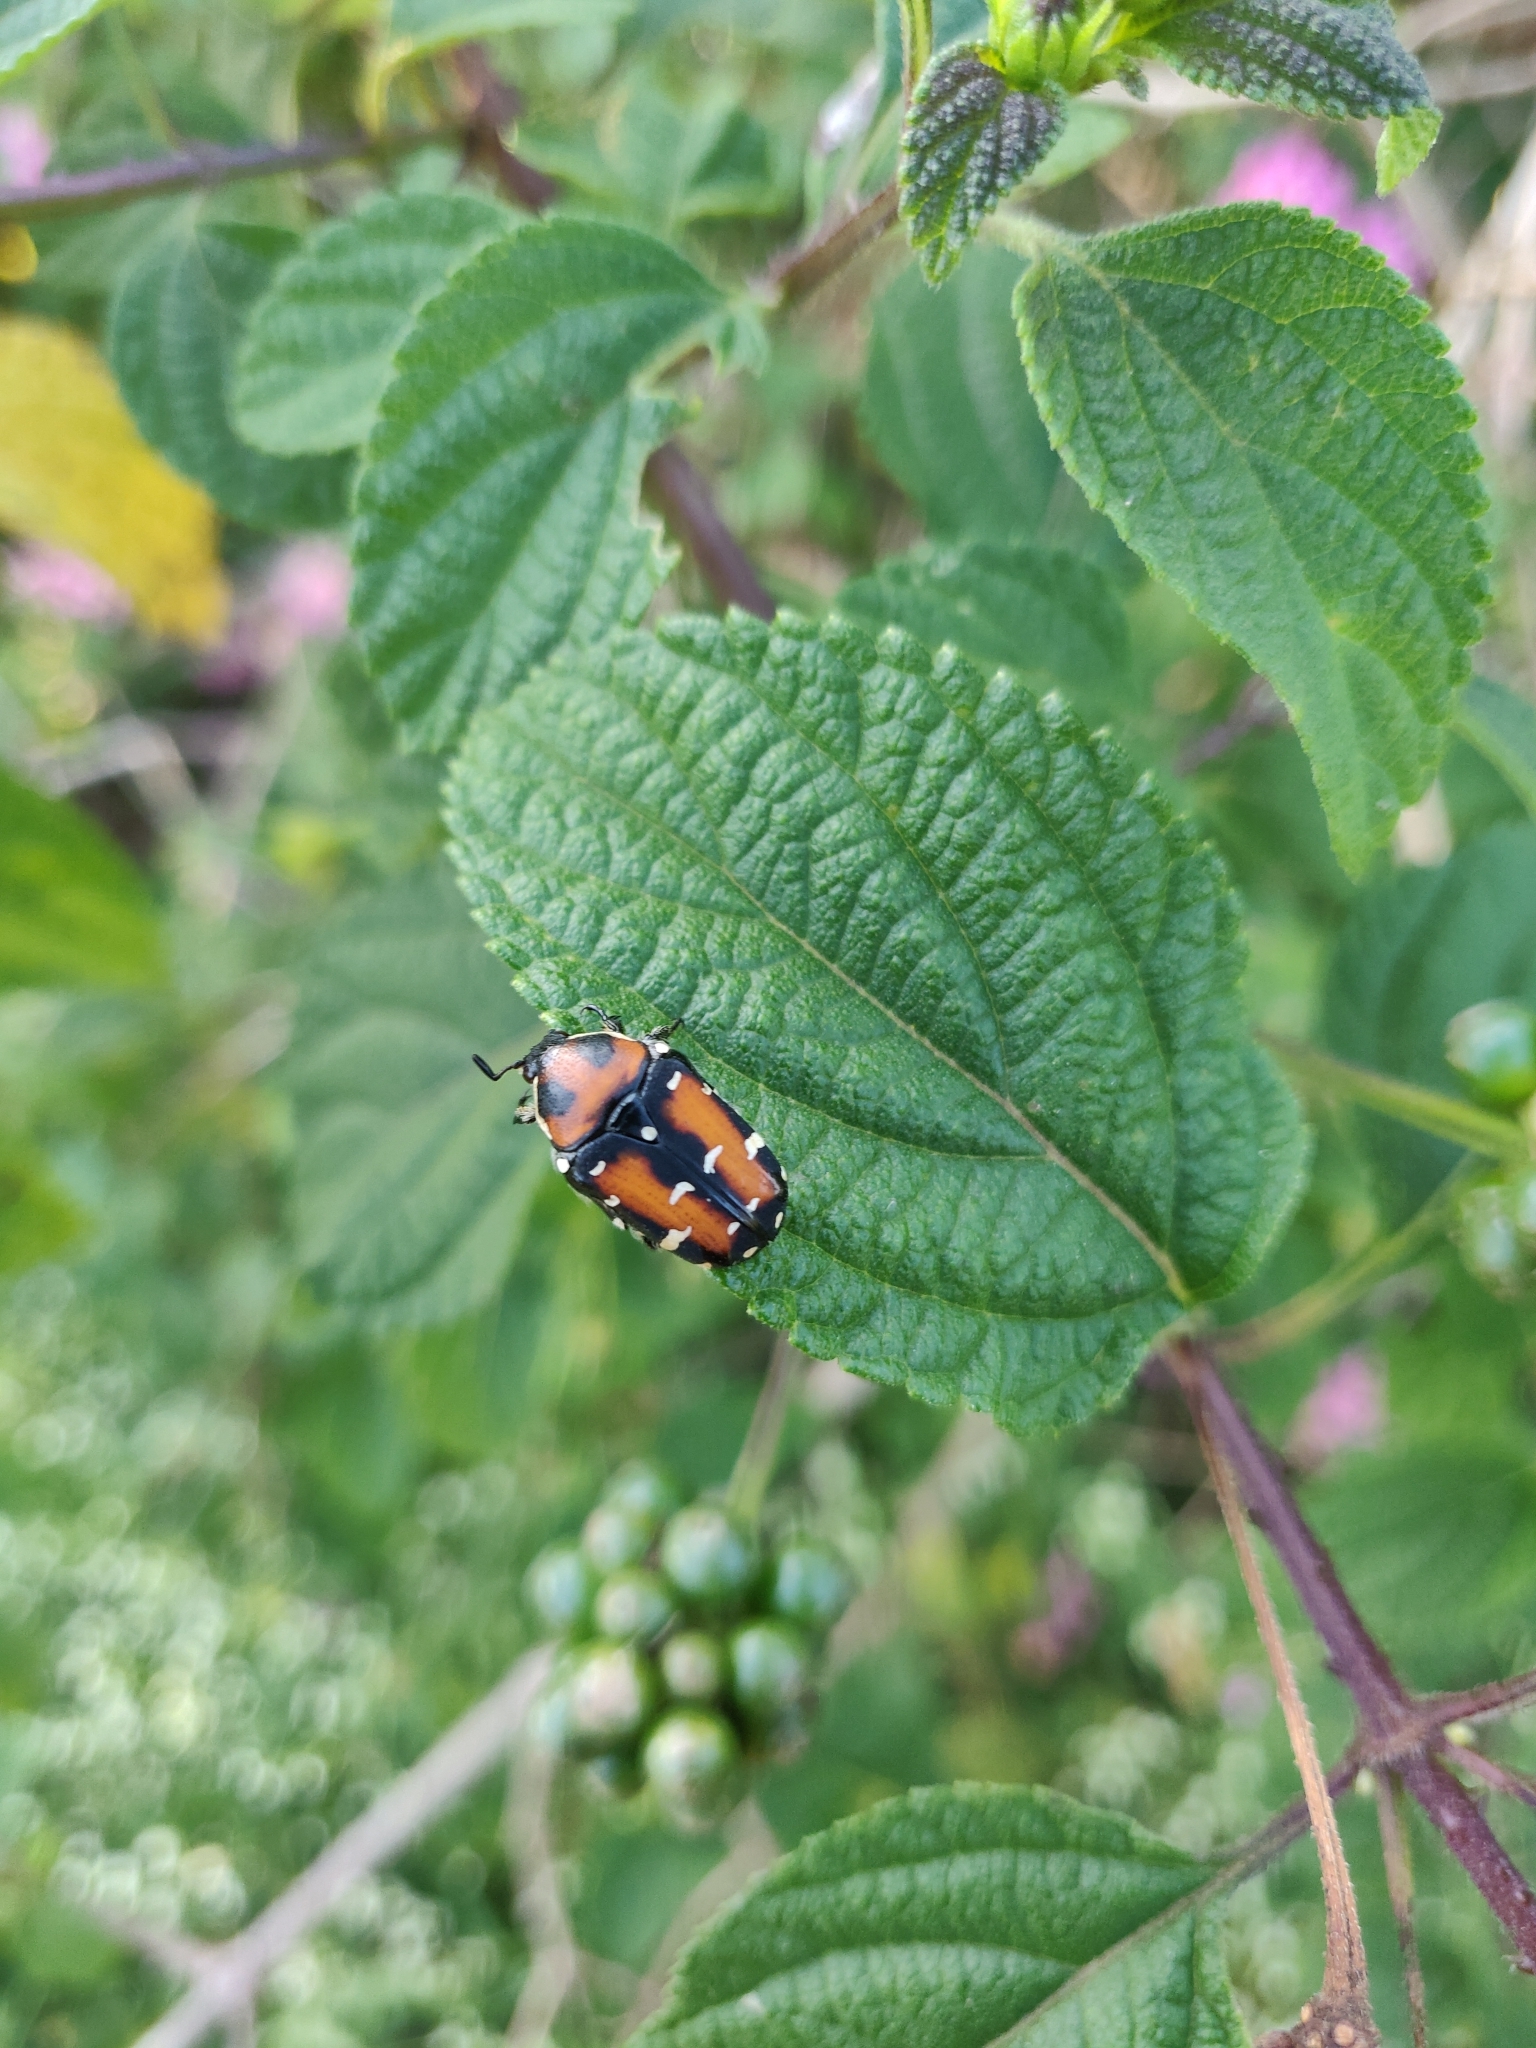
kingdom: Animalia
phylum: Arthropoda
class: Insecta
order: Coleoptera
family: Scarabaeidae
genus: Gametis
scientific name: Gametis versicolor
